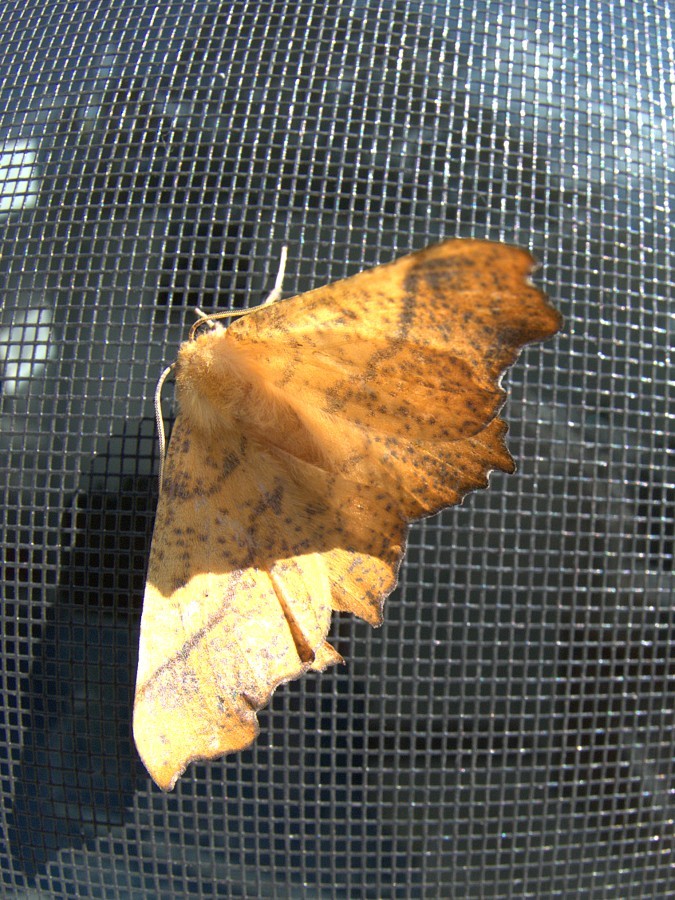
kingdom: Animalia
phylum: Arthropoda
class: Insecta
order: Lepidoptera
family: Geometridae
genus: Ennomos
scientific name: Ennomos magnaria
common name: Maple spanworm
